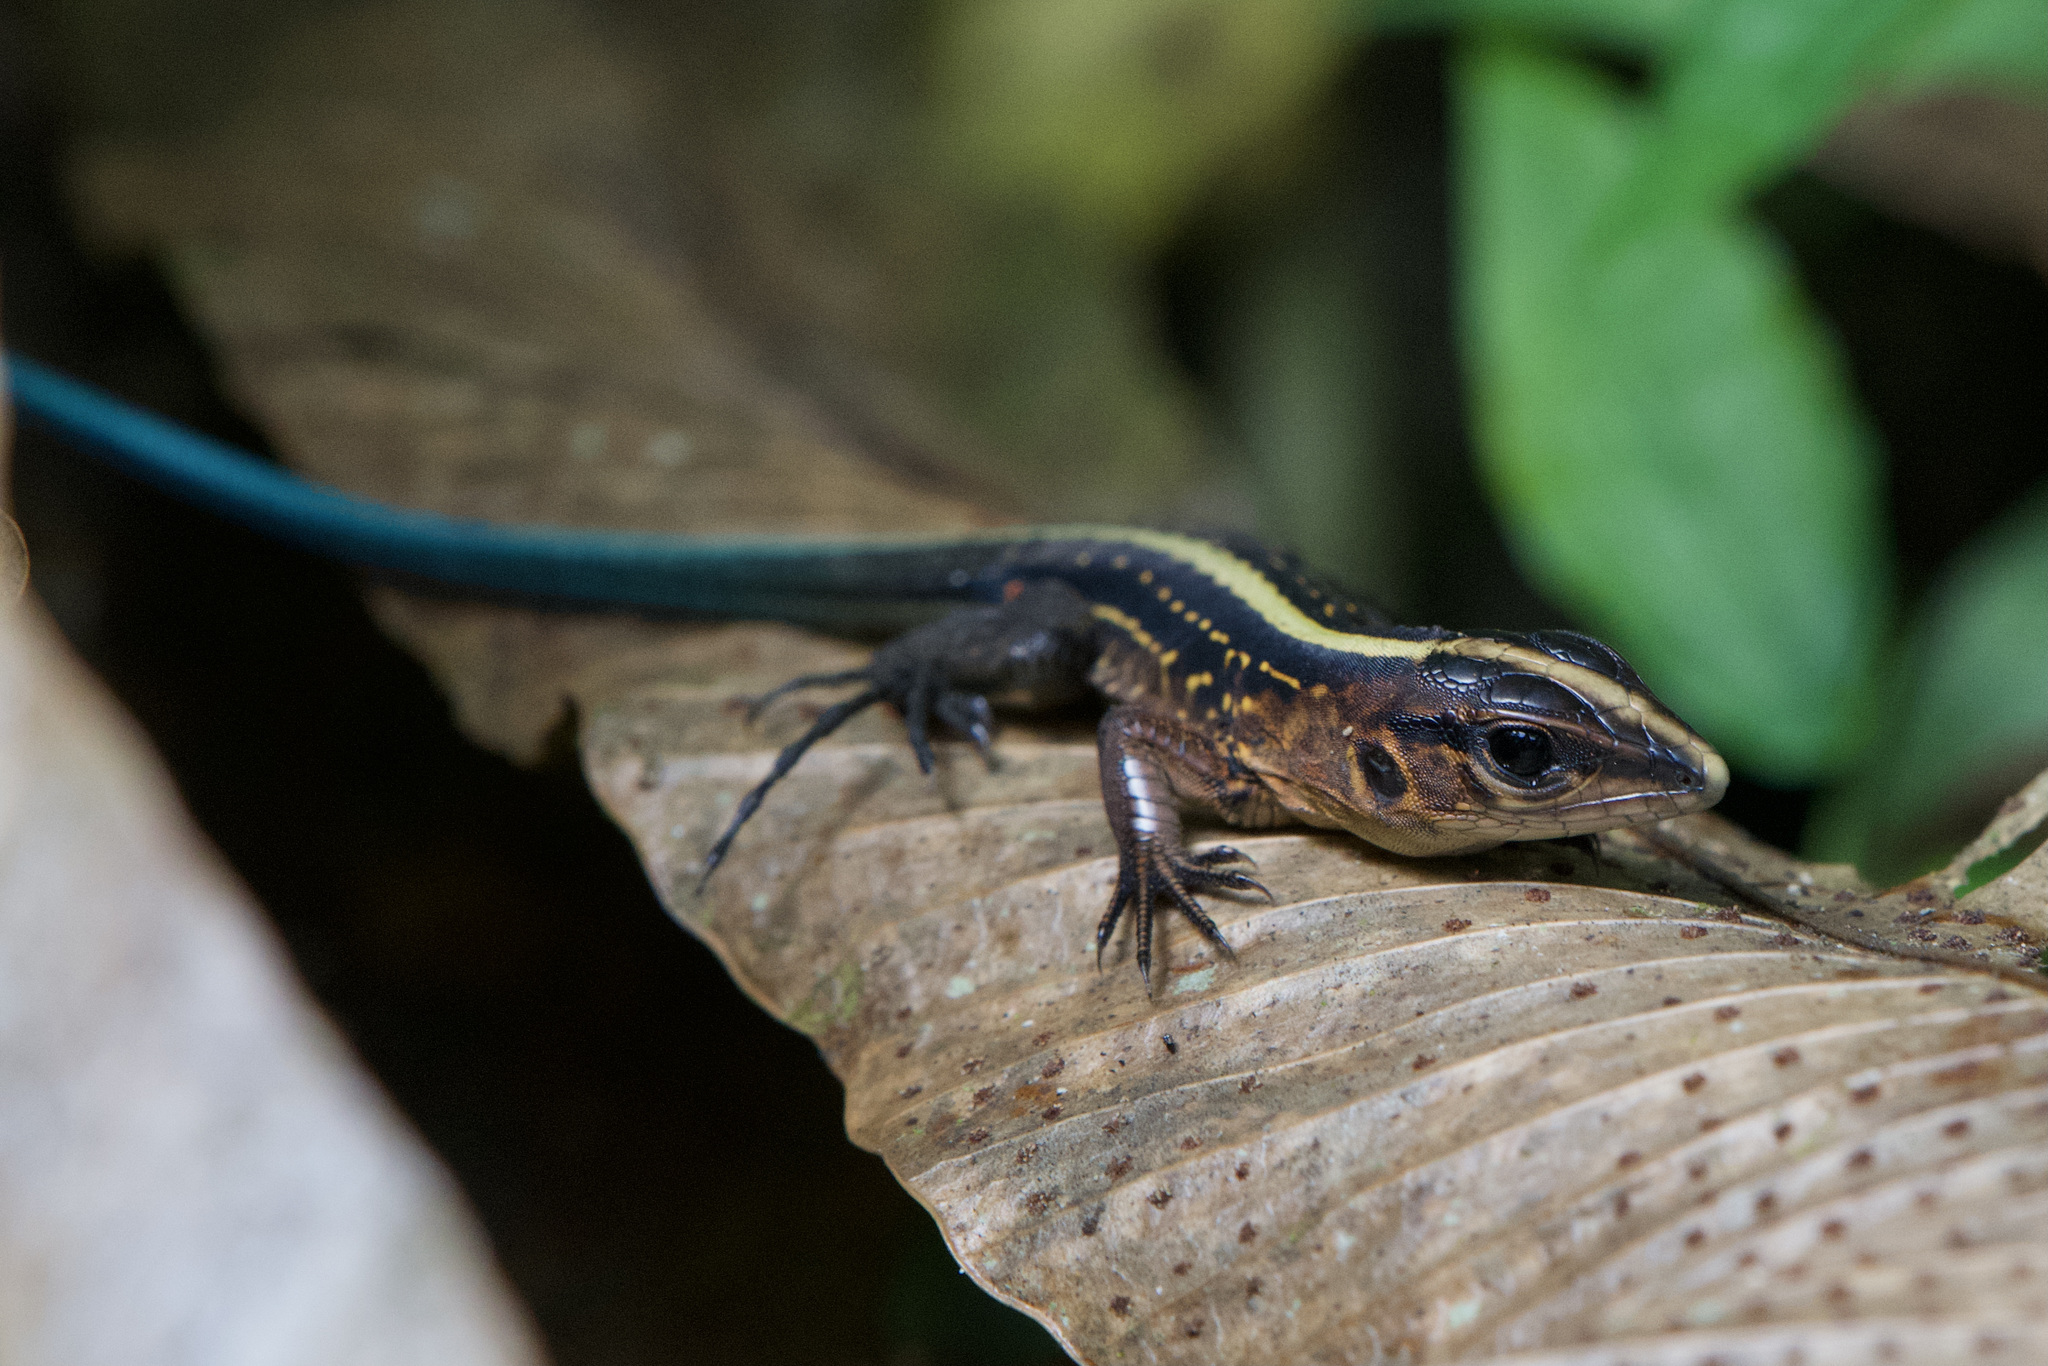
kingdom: Animalia
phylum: Chordata
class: Squamata
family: Teiidae
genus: Holcosus
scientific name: Holcosus festivus
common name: Middle american ameiva
